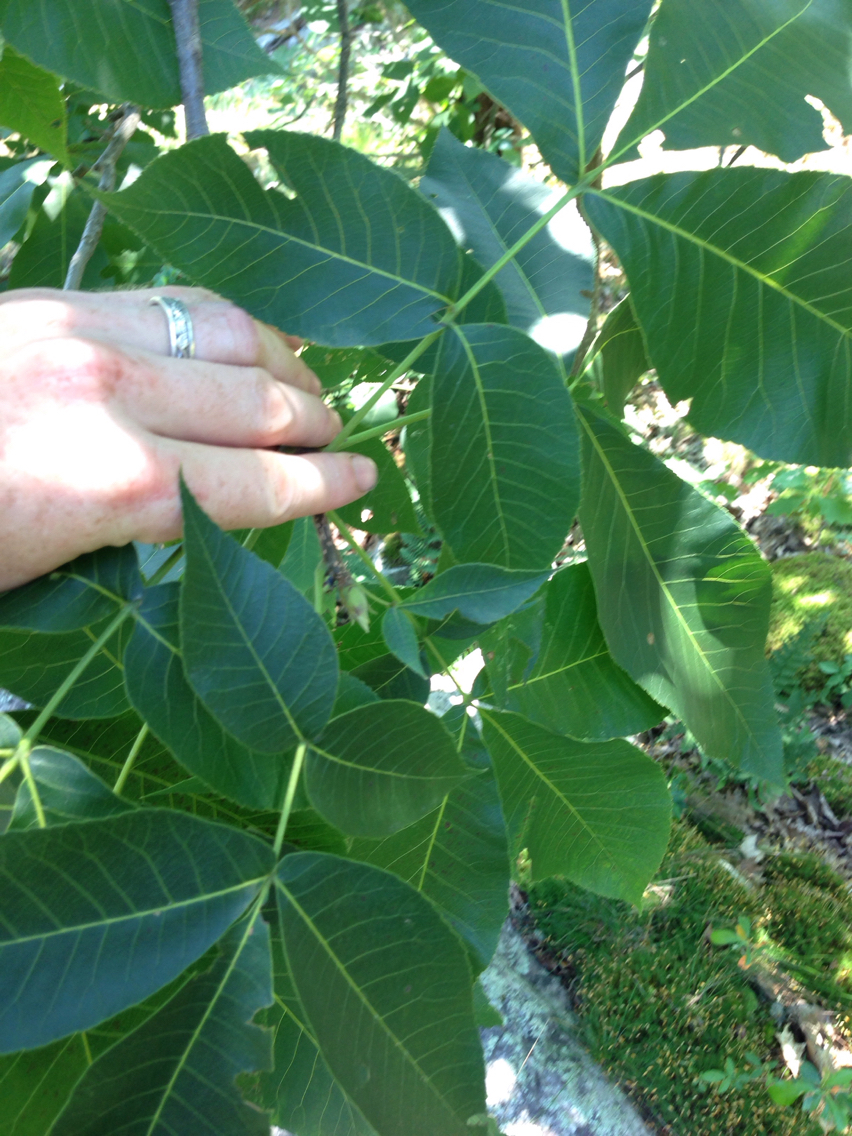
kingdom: Plantae
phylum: Tracheophyta
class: Magnoliopsida
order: Fagales
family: Juglandaceae
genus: Carya
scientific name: Carya ovata
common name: Shagbark hickory
